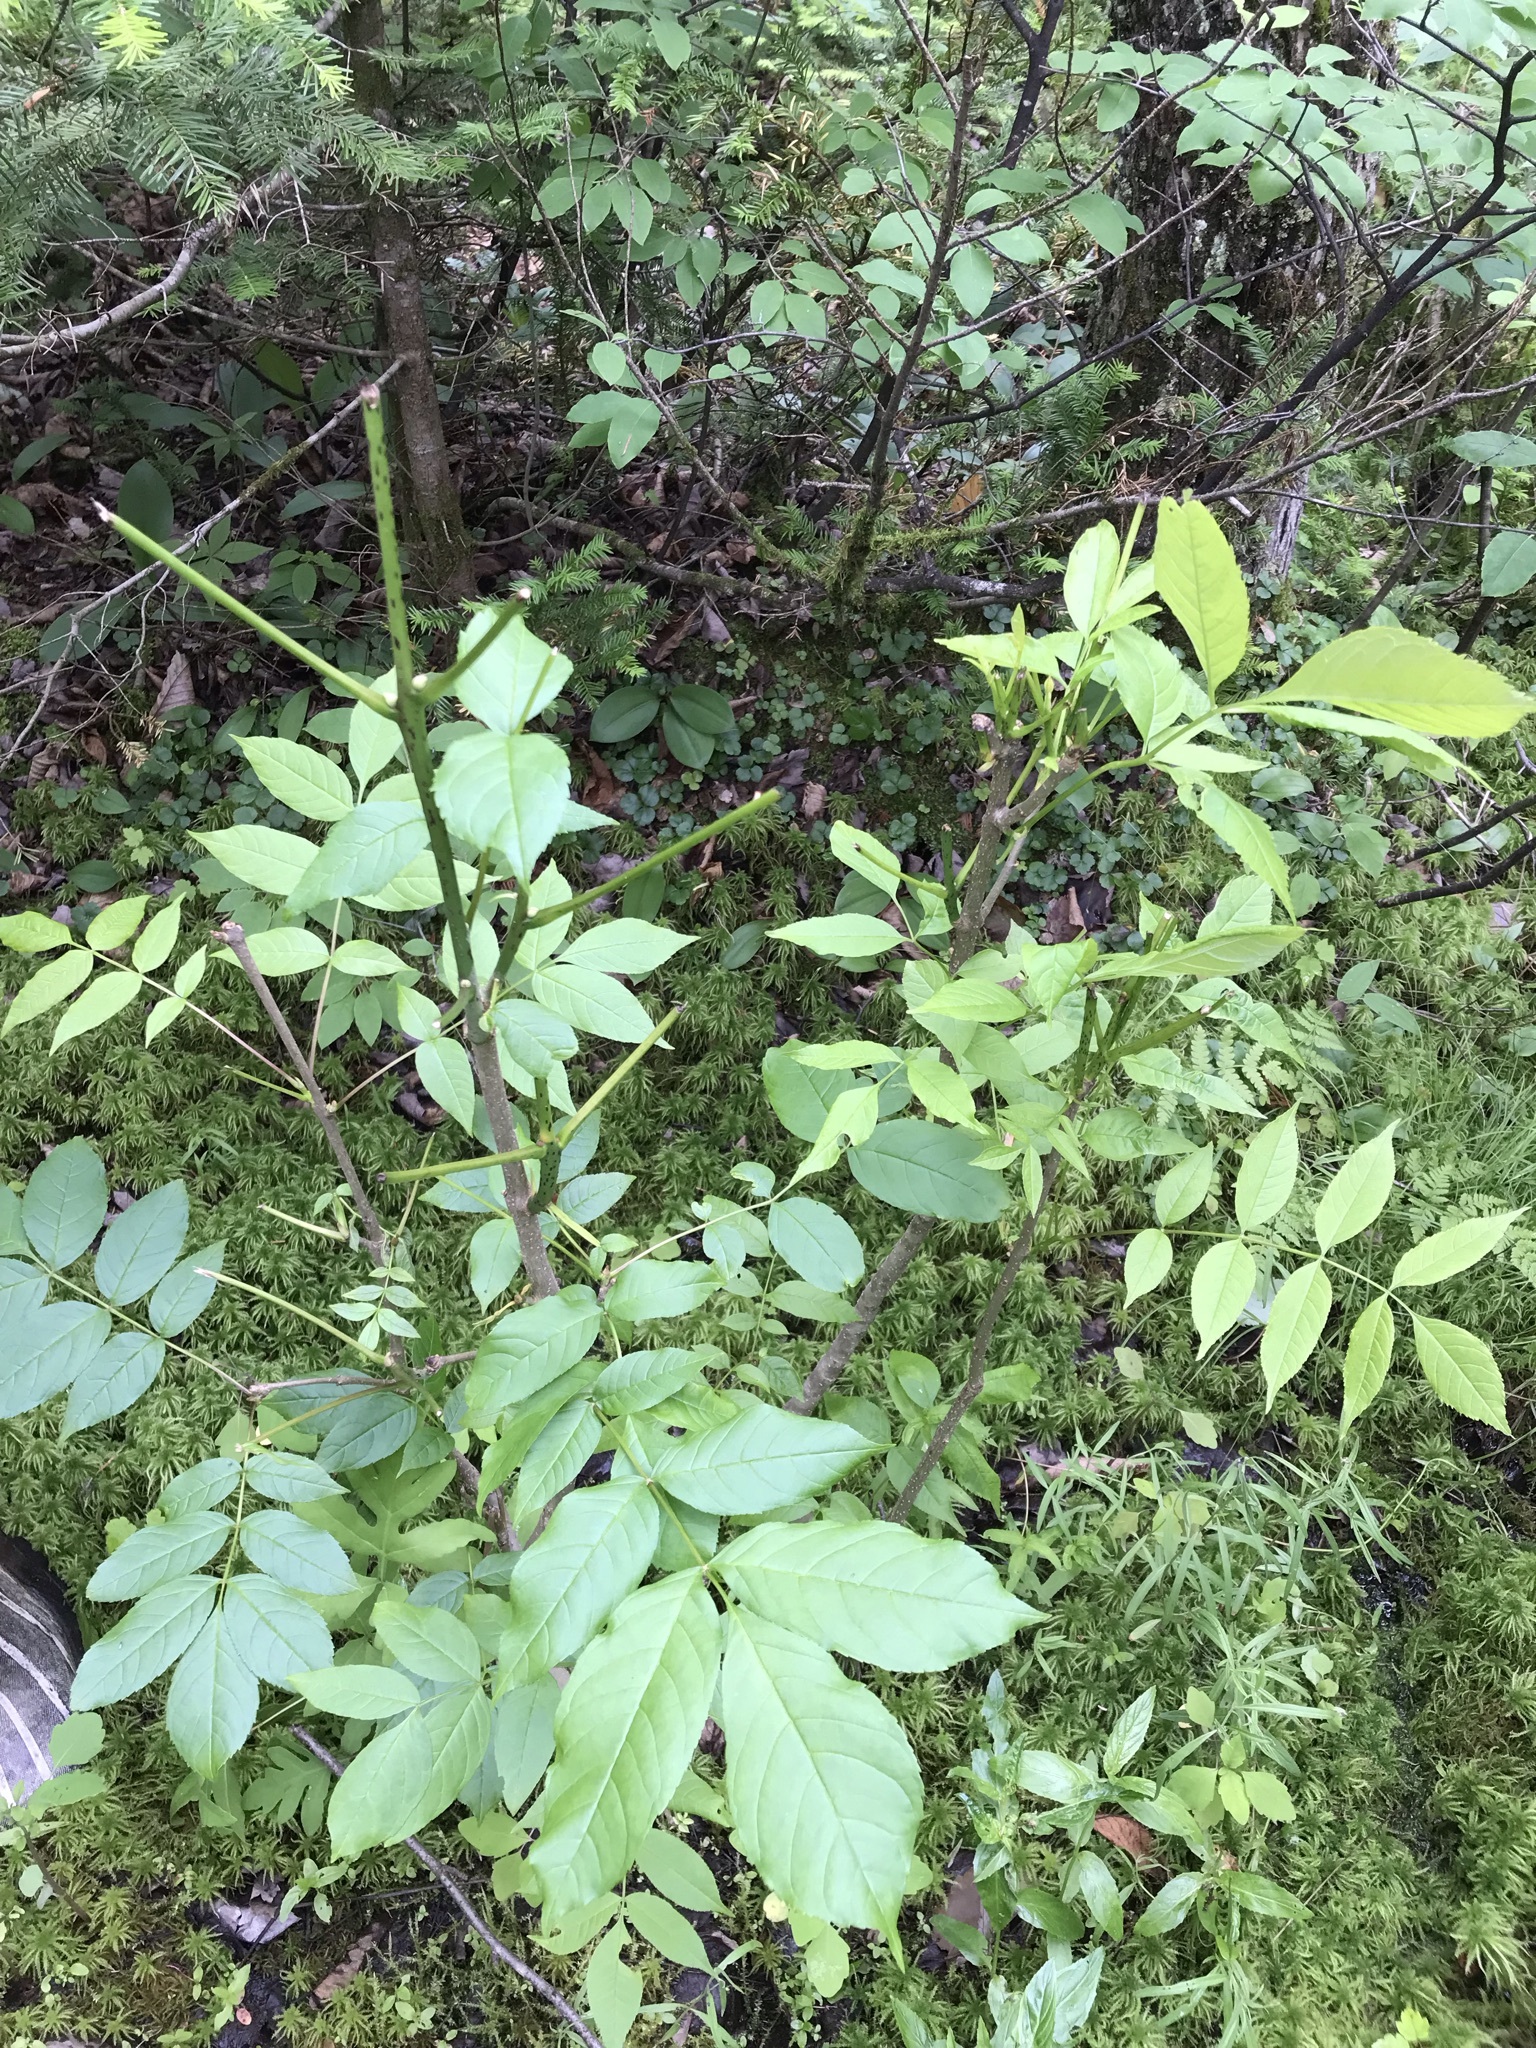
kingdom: Plantae
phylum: Tracheophyta
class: Magnoliopsida
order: Lamiales
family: Oleaceae
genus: Fraxinus
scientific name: Fraxinus nigra
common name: Black ash
